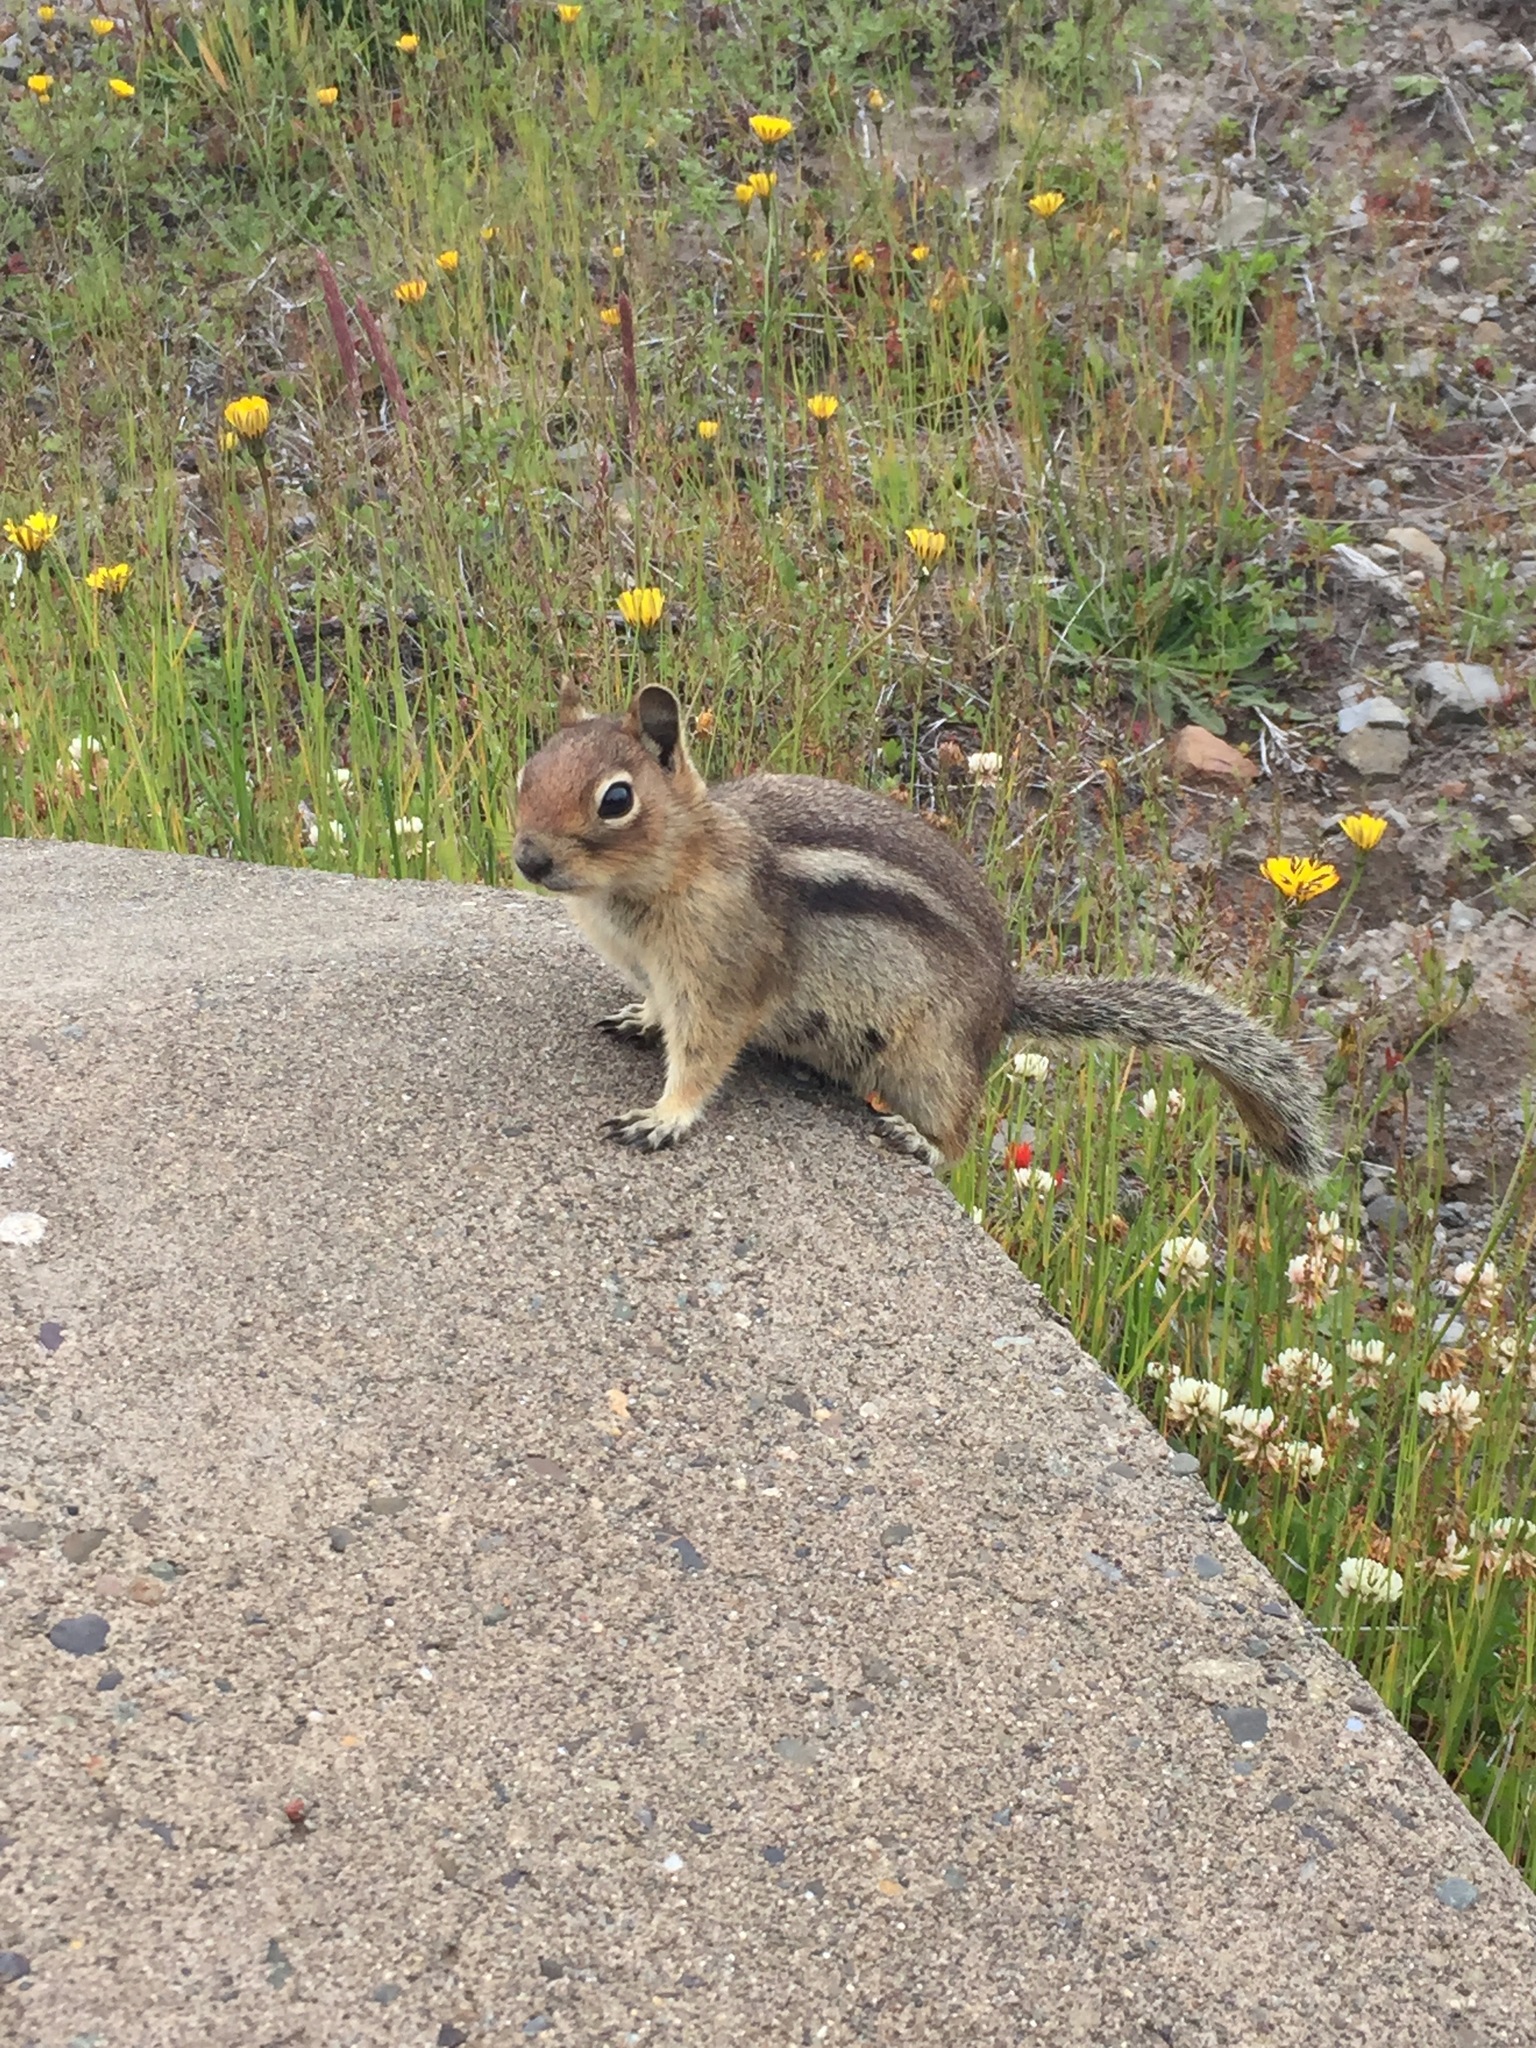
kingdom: Animalia
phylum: Chordata
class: Mammalia
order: Rodentia
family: Sciuridae
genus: Callospermophilus
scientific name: Callospermophilus saturatus
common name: Cascade golden-mantled ground squirrel
